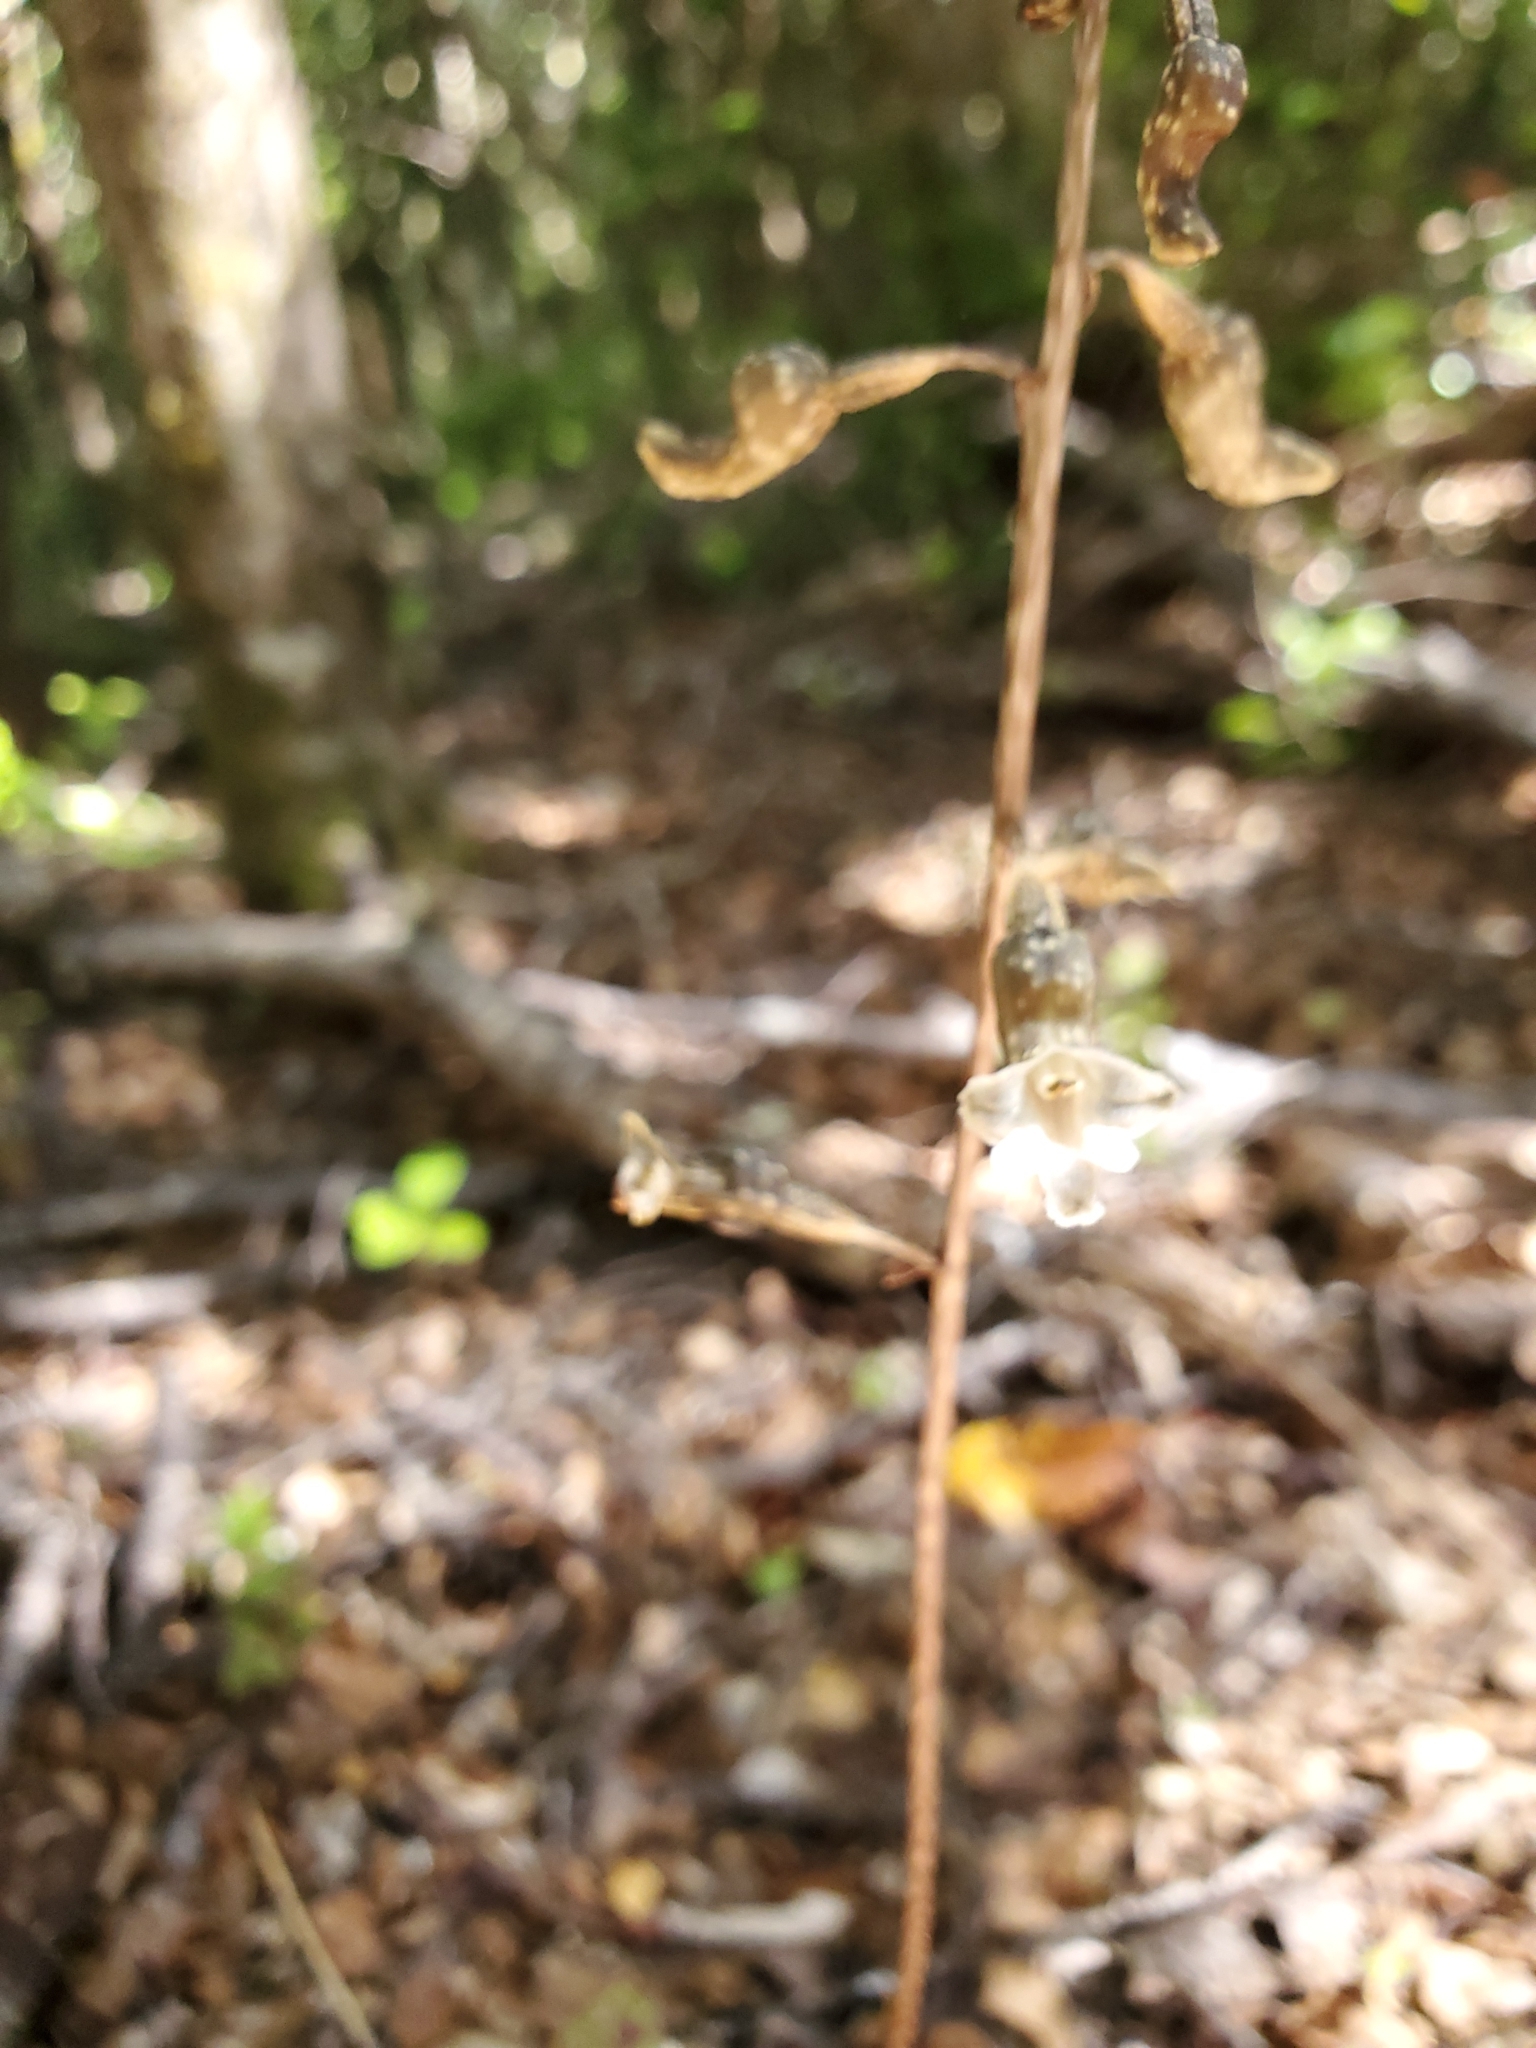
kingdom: Plantae
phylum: Tracheophyta
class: Liliopsida
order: Asparagales
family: Orchidaceae
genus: Gastrodia
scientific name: Gastrodia cunninghamii
